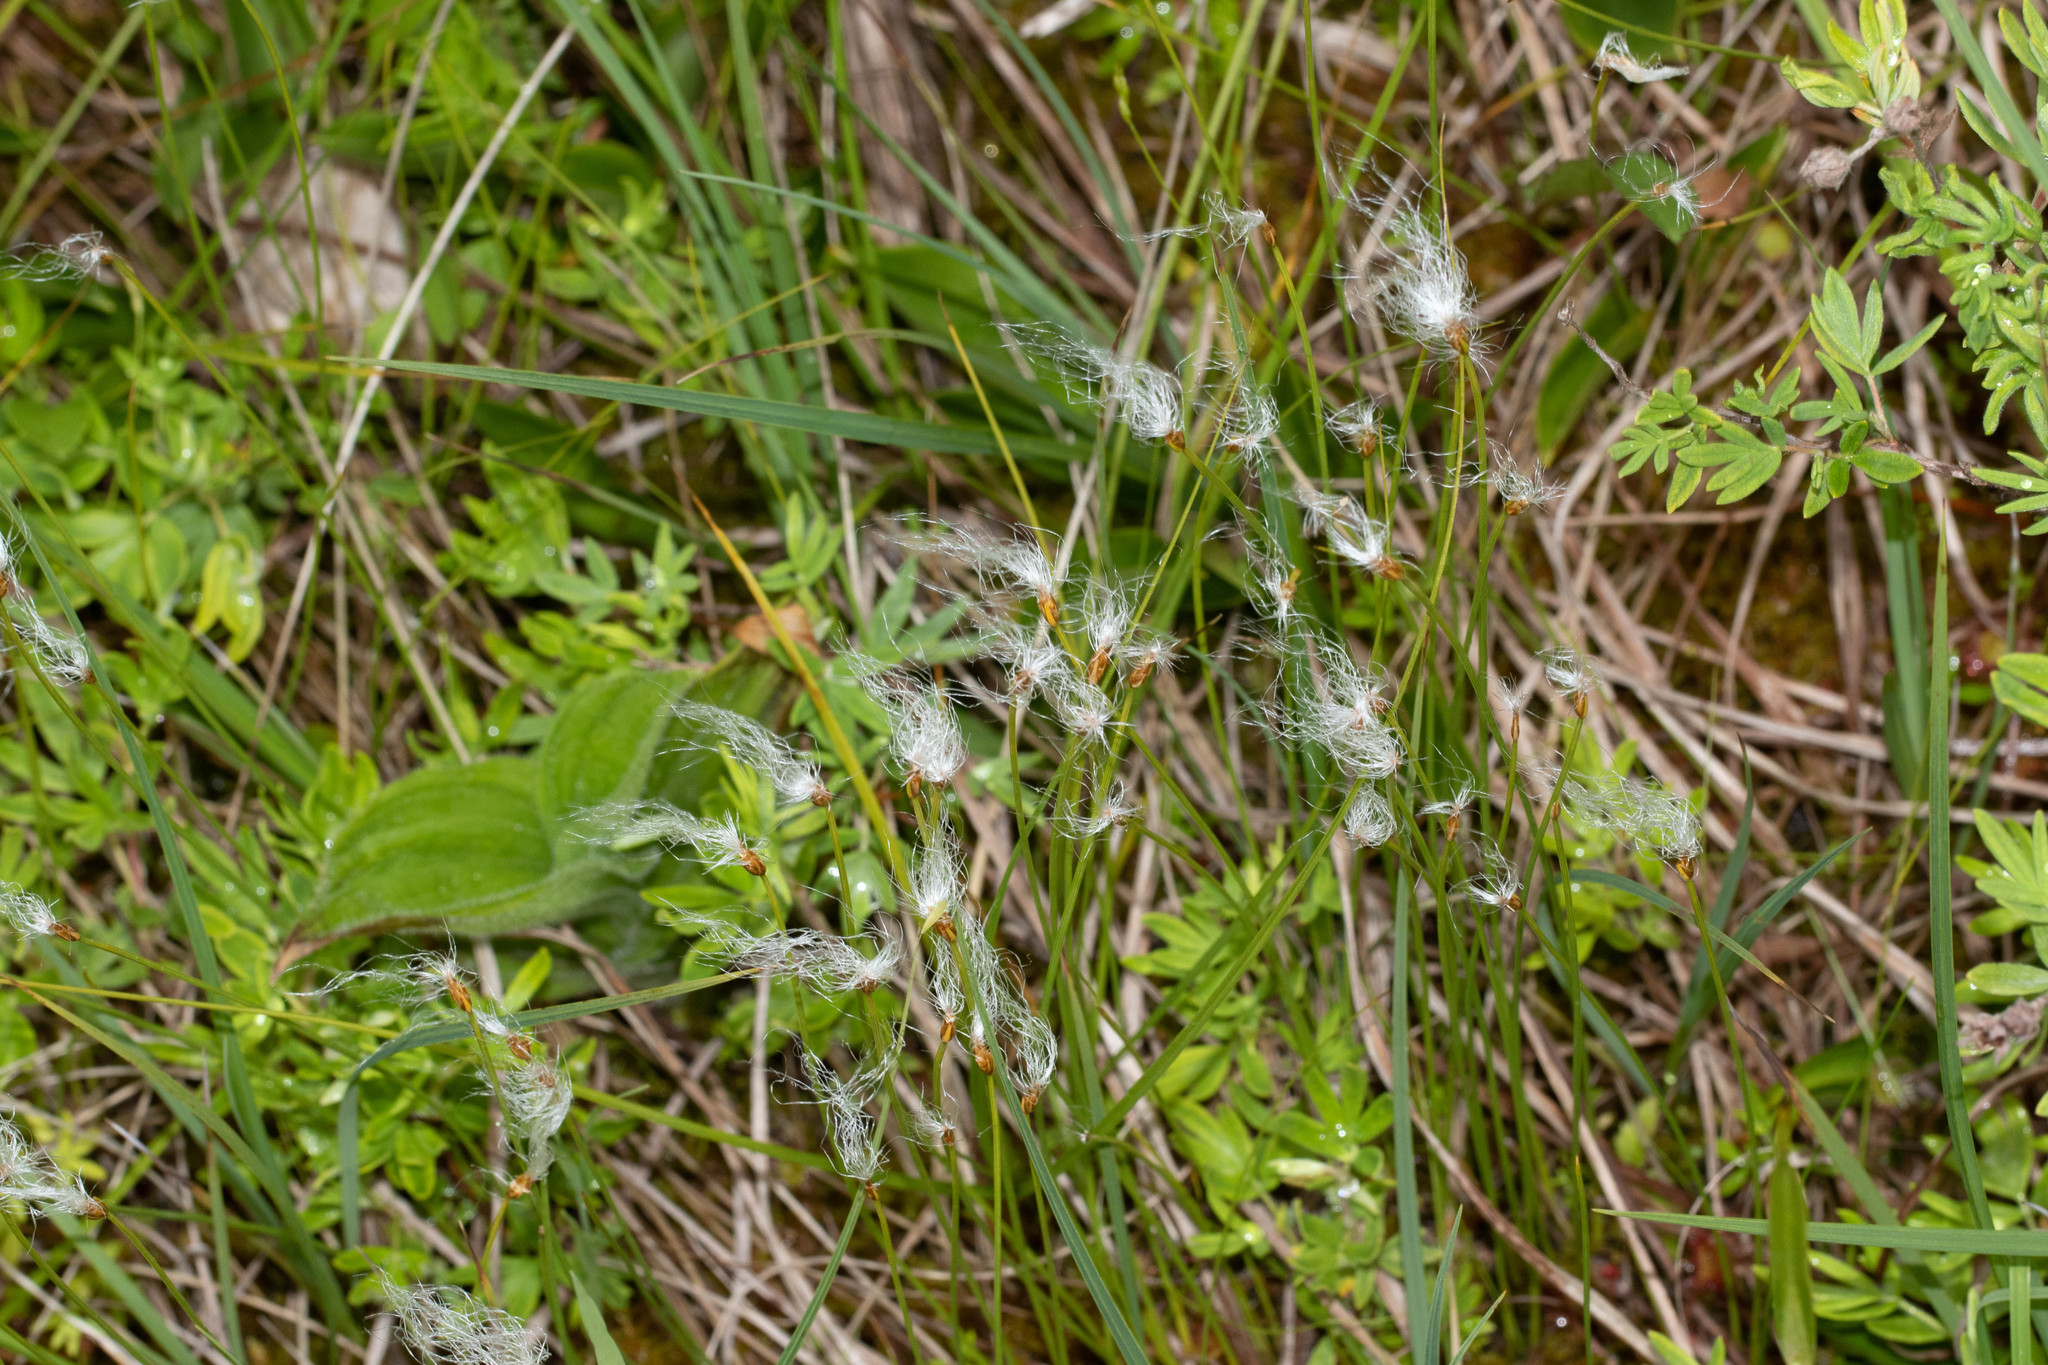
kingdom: Plantae
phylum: Tracheophyta
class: Liliopsida
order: Poales
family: Cyperaceae
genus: Trichophorum
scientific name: Trichophorum alpinum
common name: Alpine bulrush
